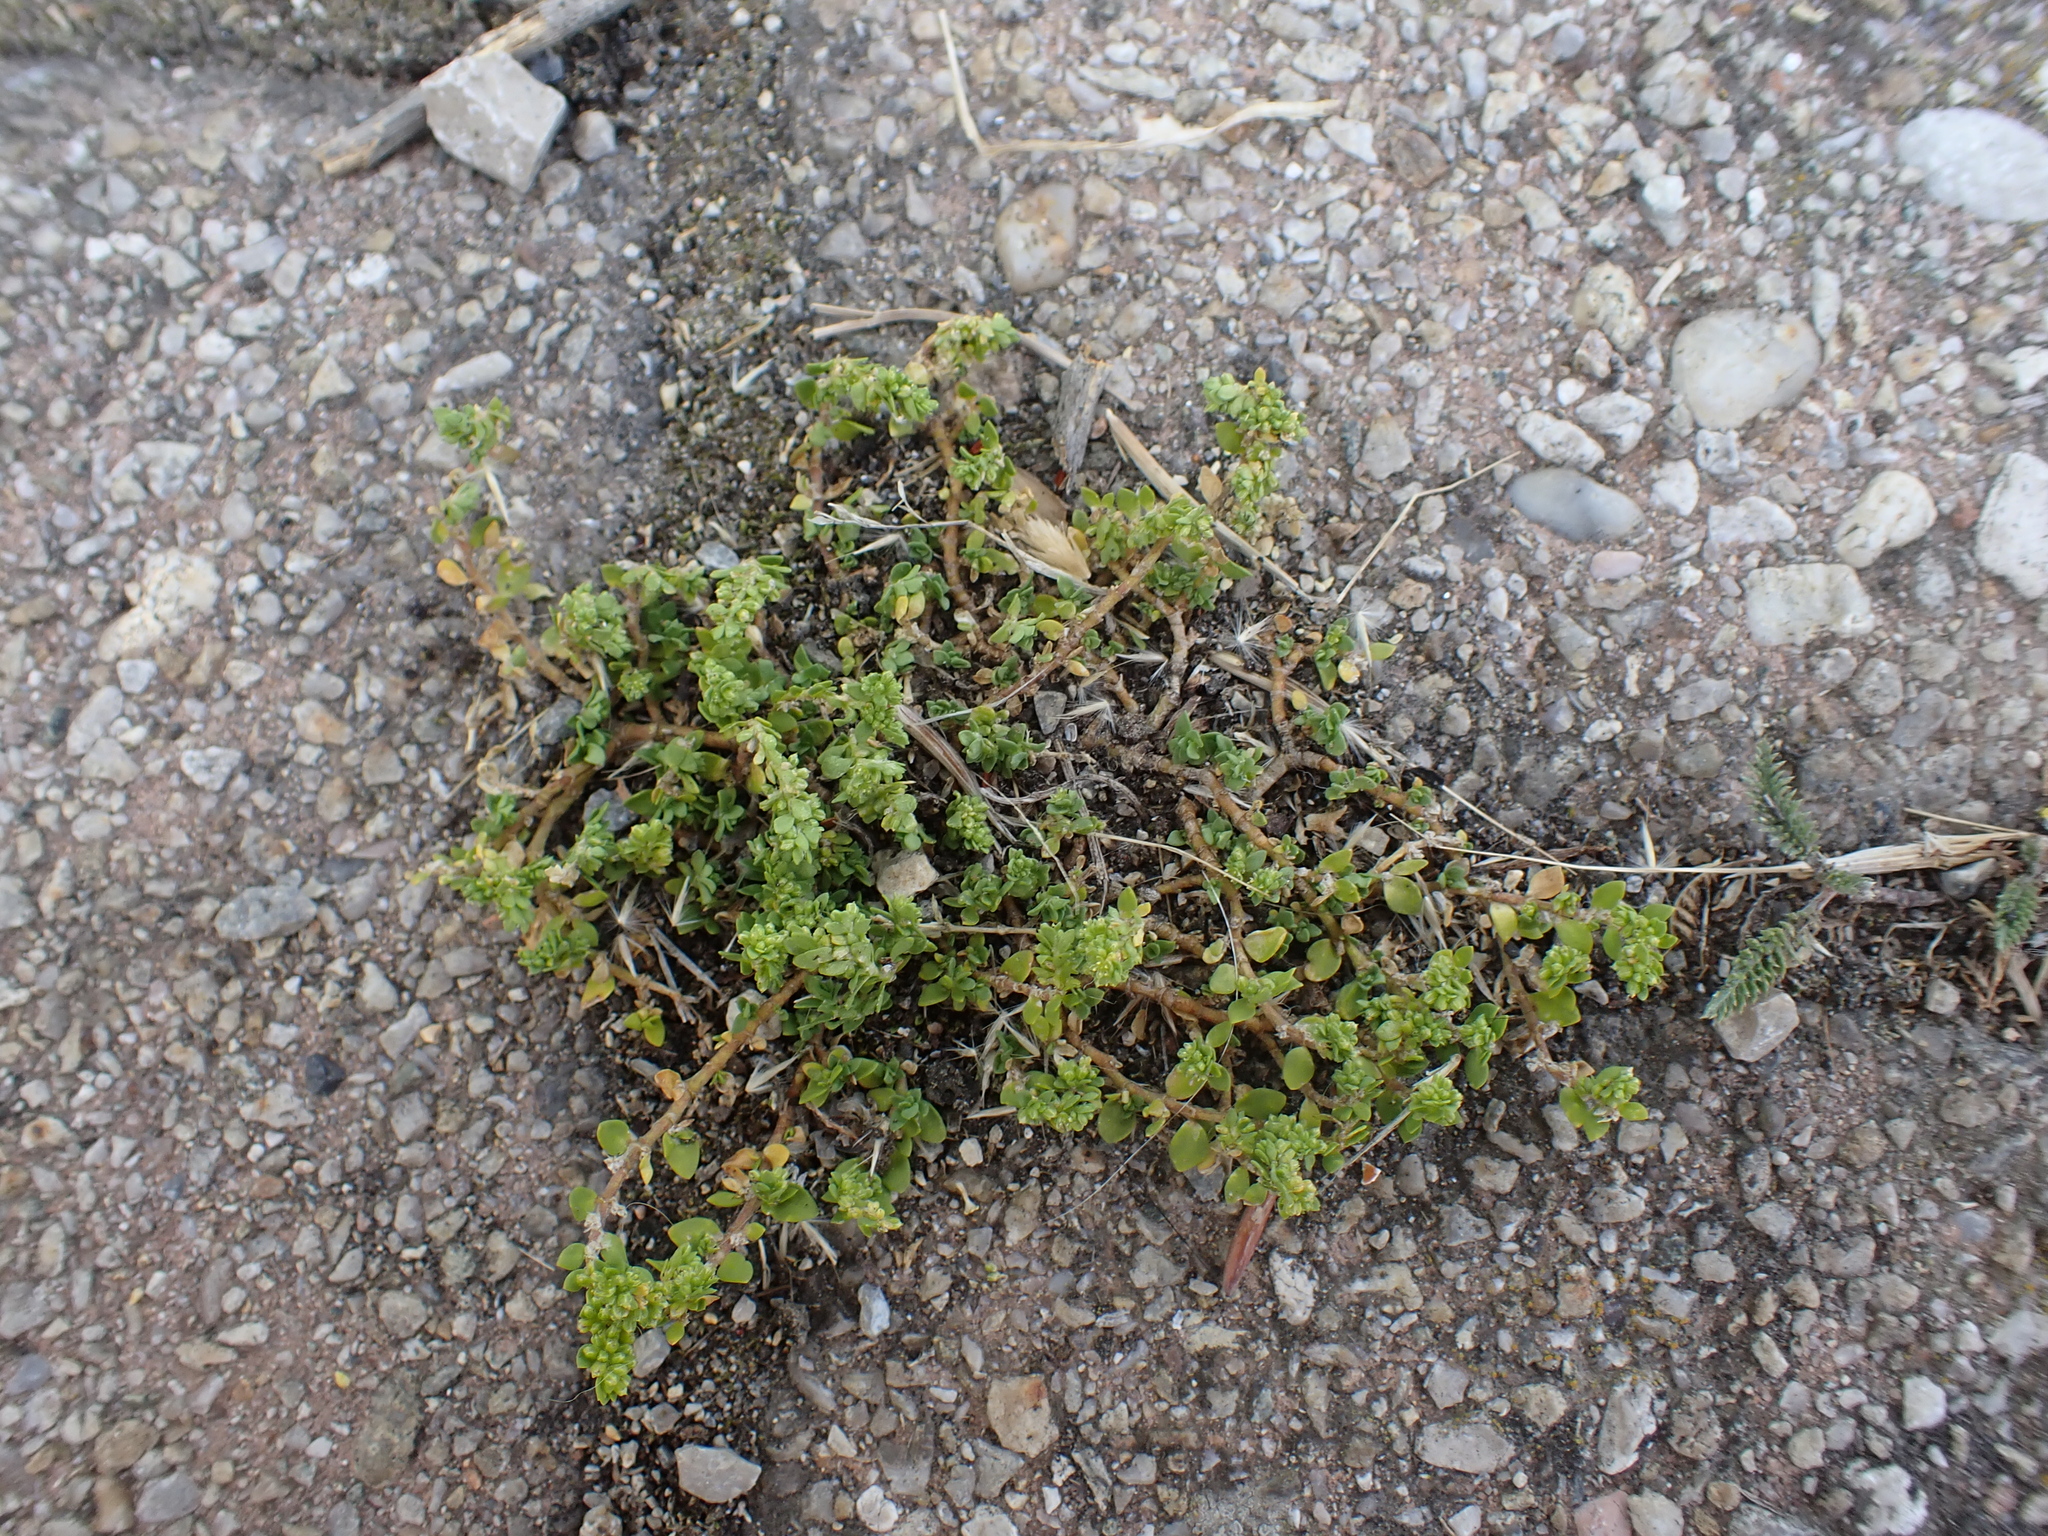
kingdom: Plantae
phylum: Tracheophyta
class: Magnoliopsida
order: Caryophyllales
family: Caryophyllaceae
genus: Herniaria
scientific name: Herniaria glabra
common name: Smooth rupturewort
